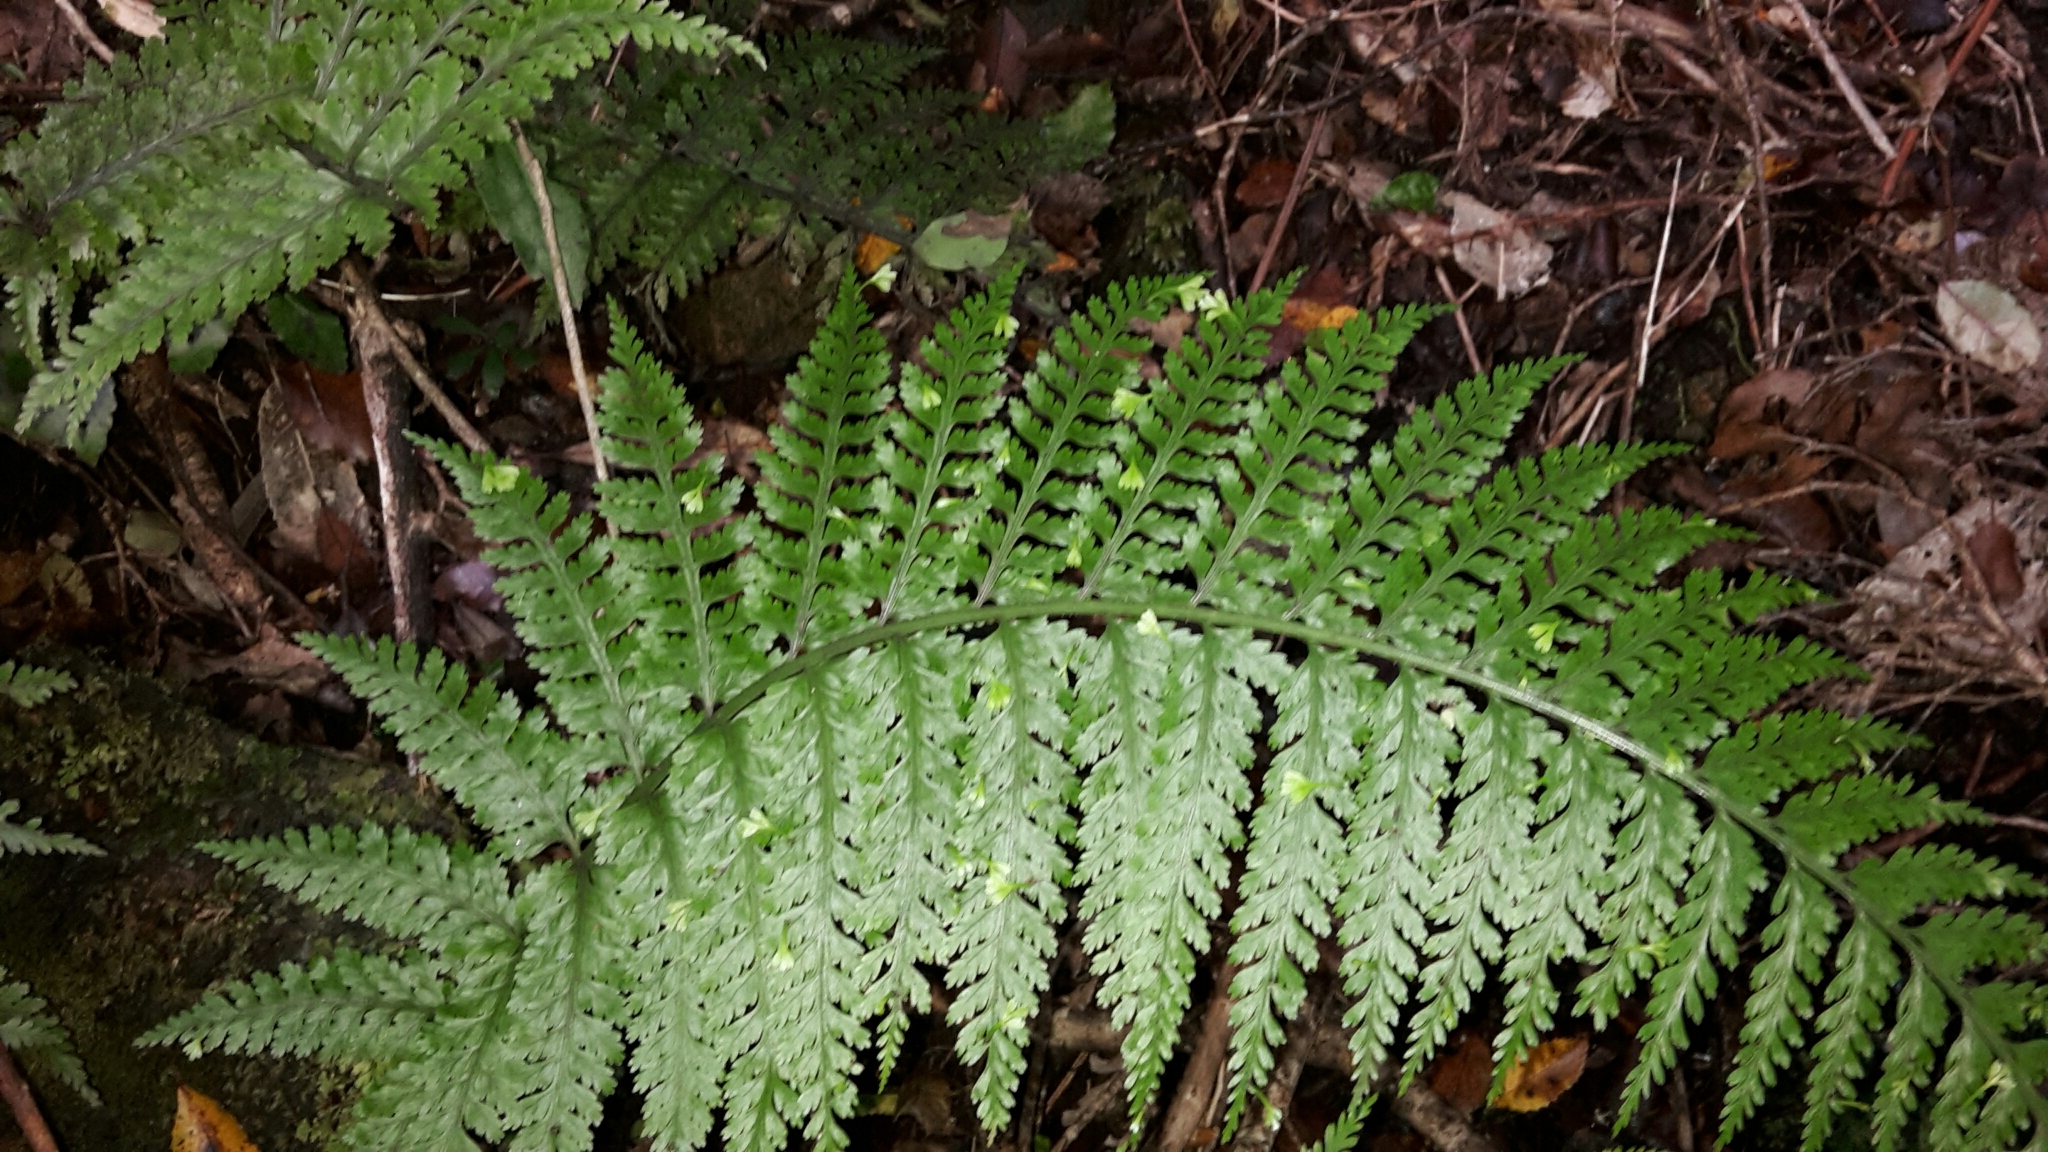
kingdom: Plantae
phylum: Tracheophyta
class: Polypodiopsida
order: Polypodiales
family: Aspleniaceae
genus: Asplenium
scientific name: Asplenium bulbiferum
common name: Mother fern
